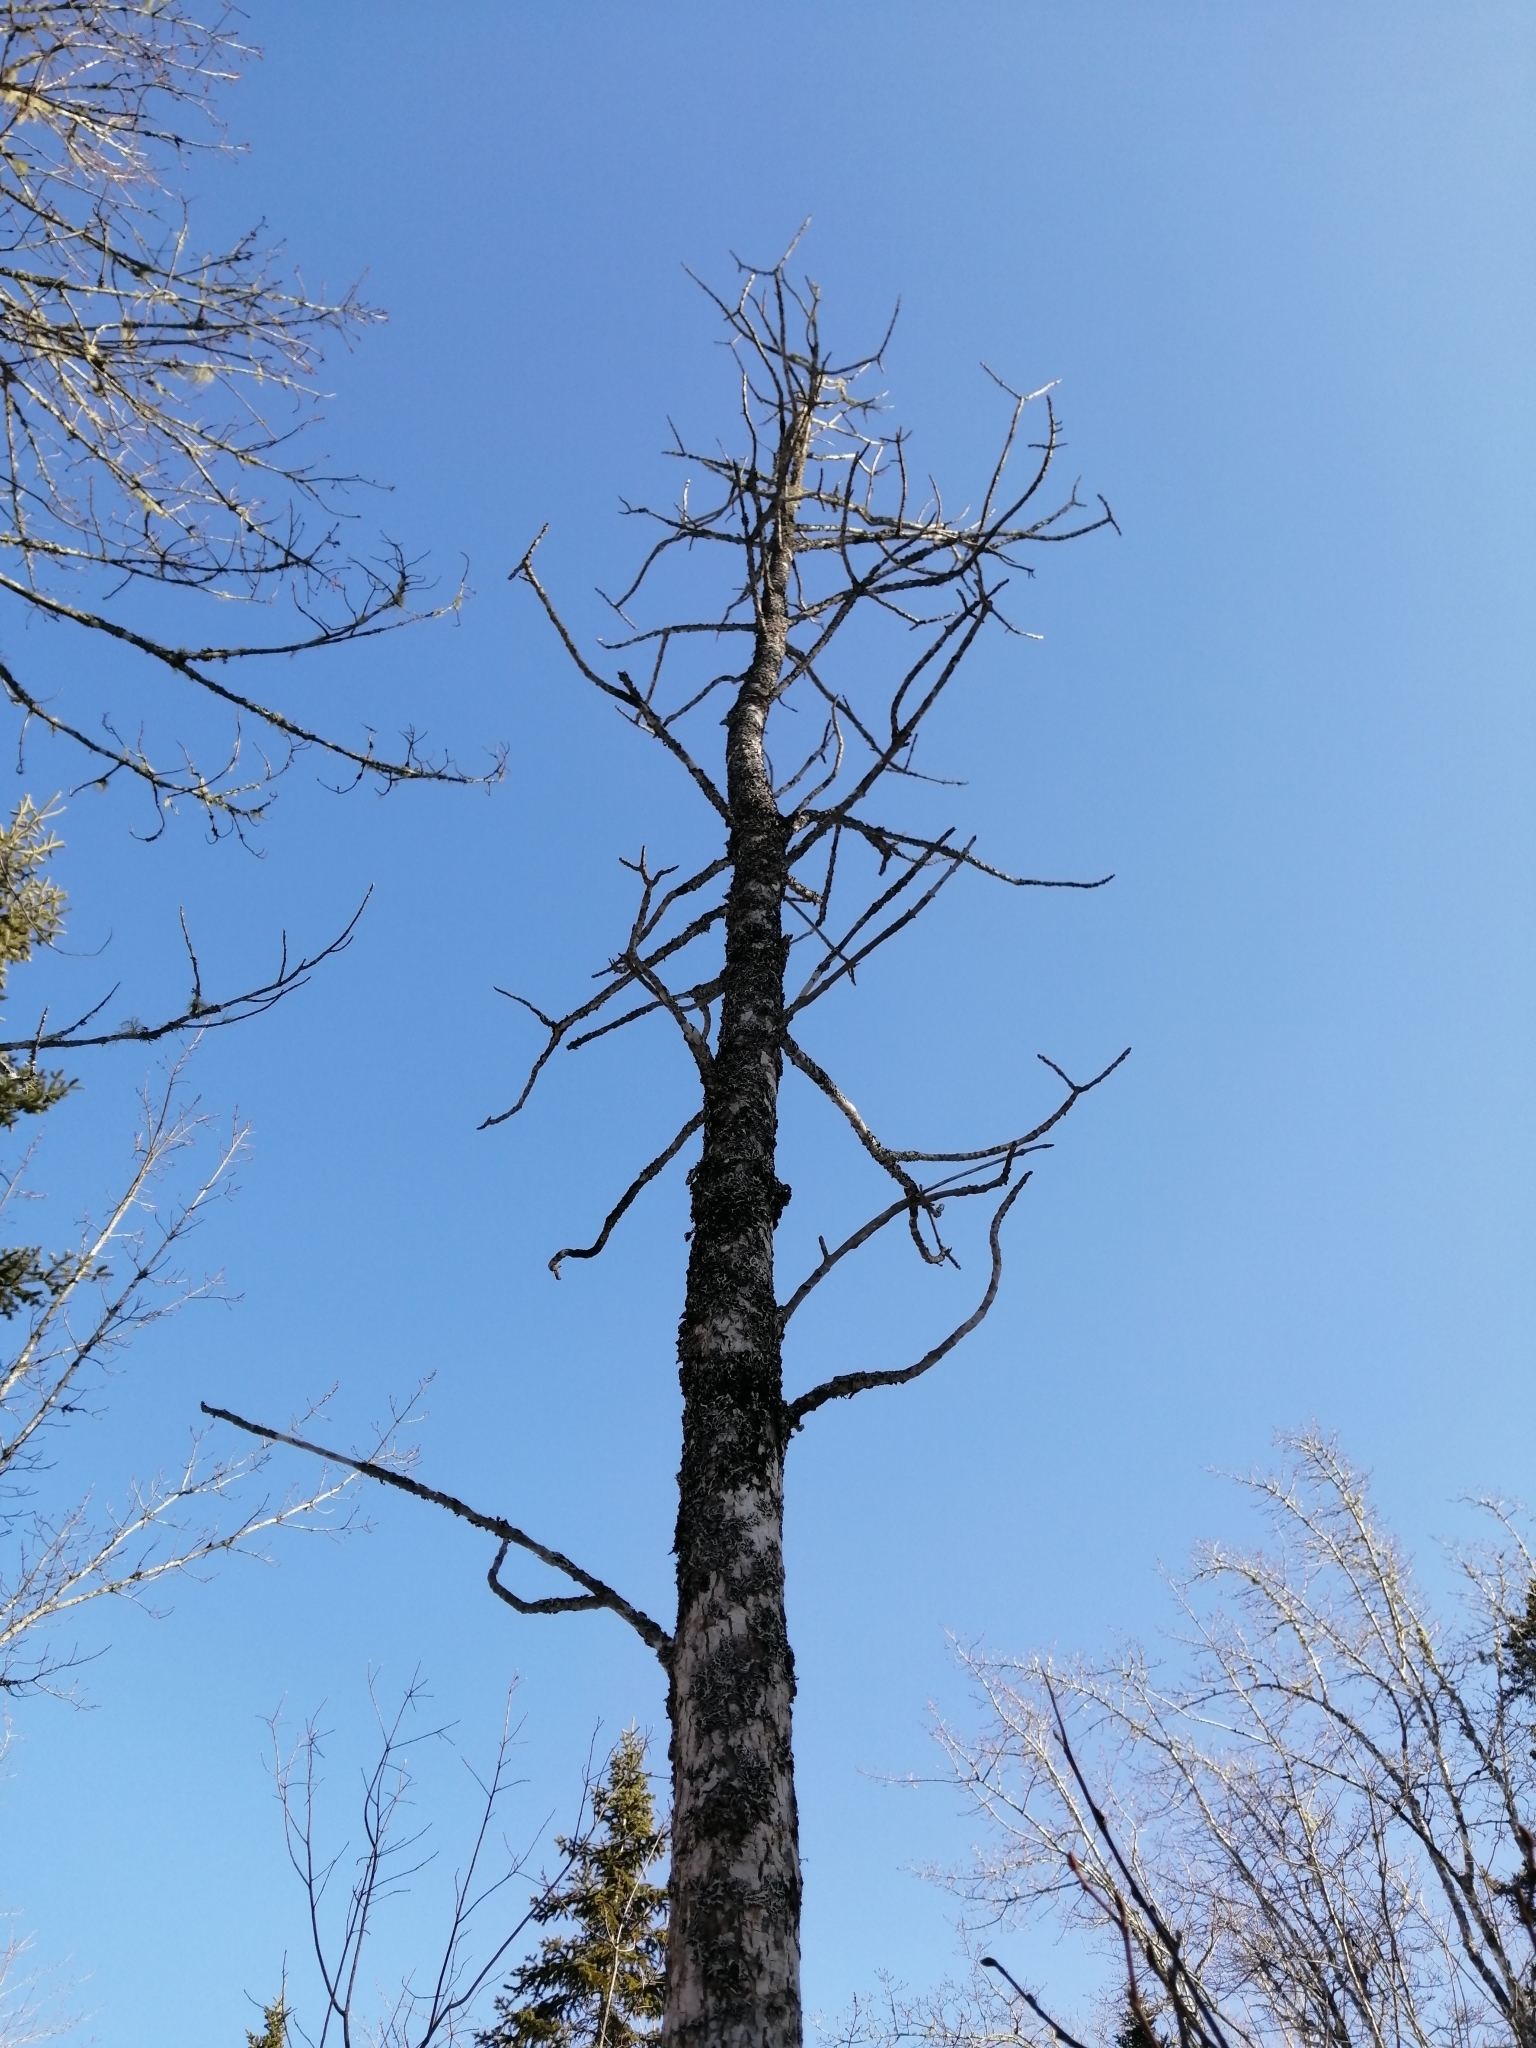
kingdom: Plantae
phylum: Tracheophyta
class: Magnoliopsida
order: Lamiales
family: Oleaceae
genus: Fraxinus
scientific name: Fraxinus nigra
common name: Black ash
